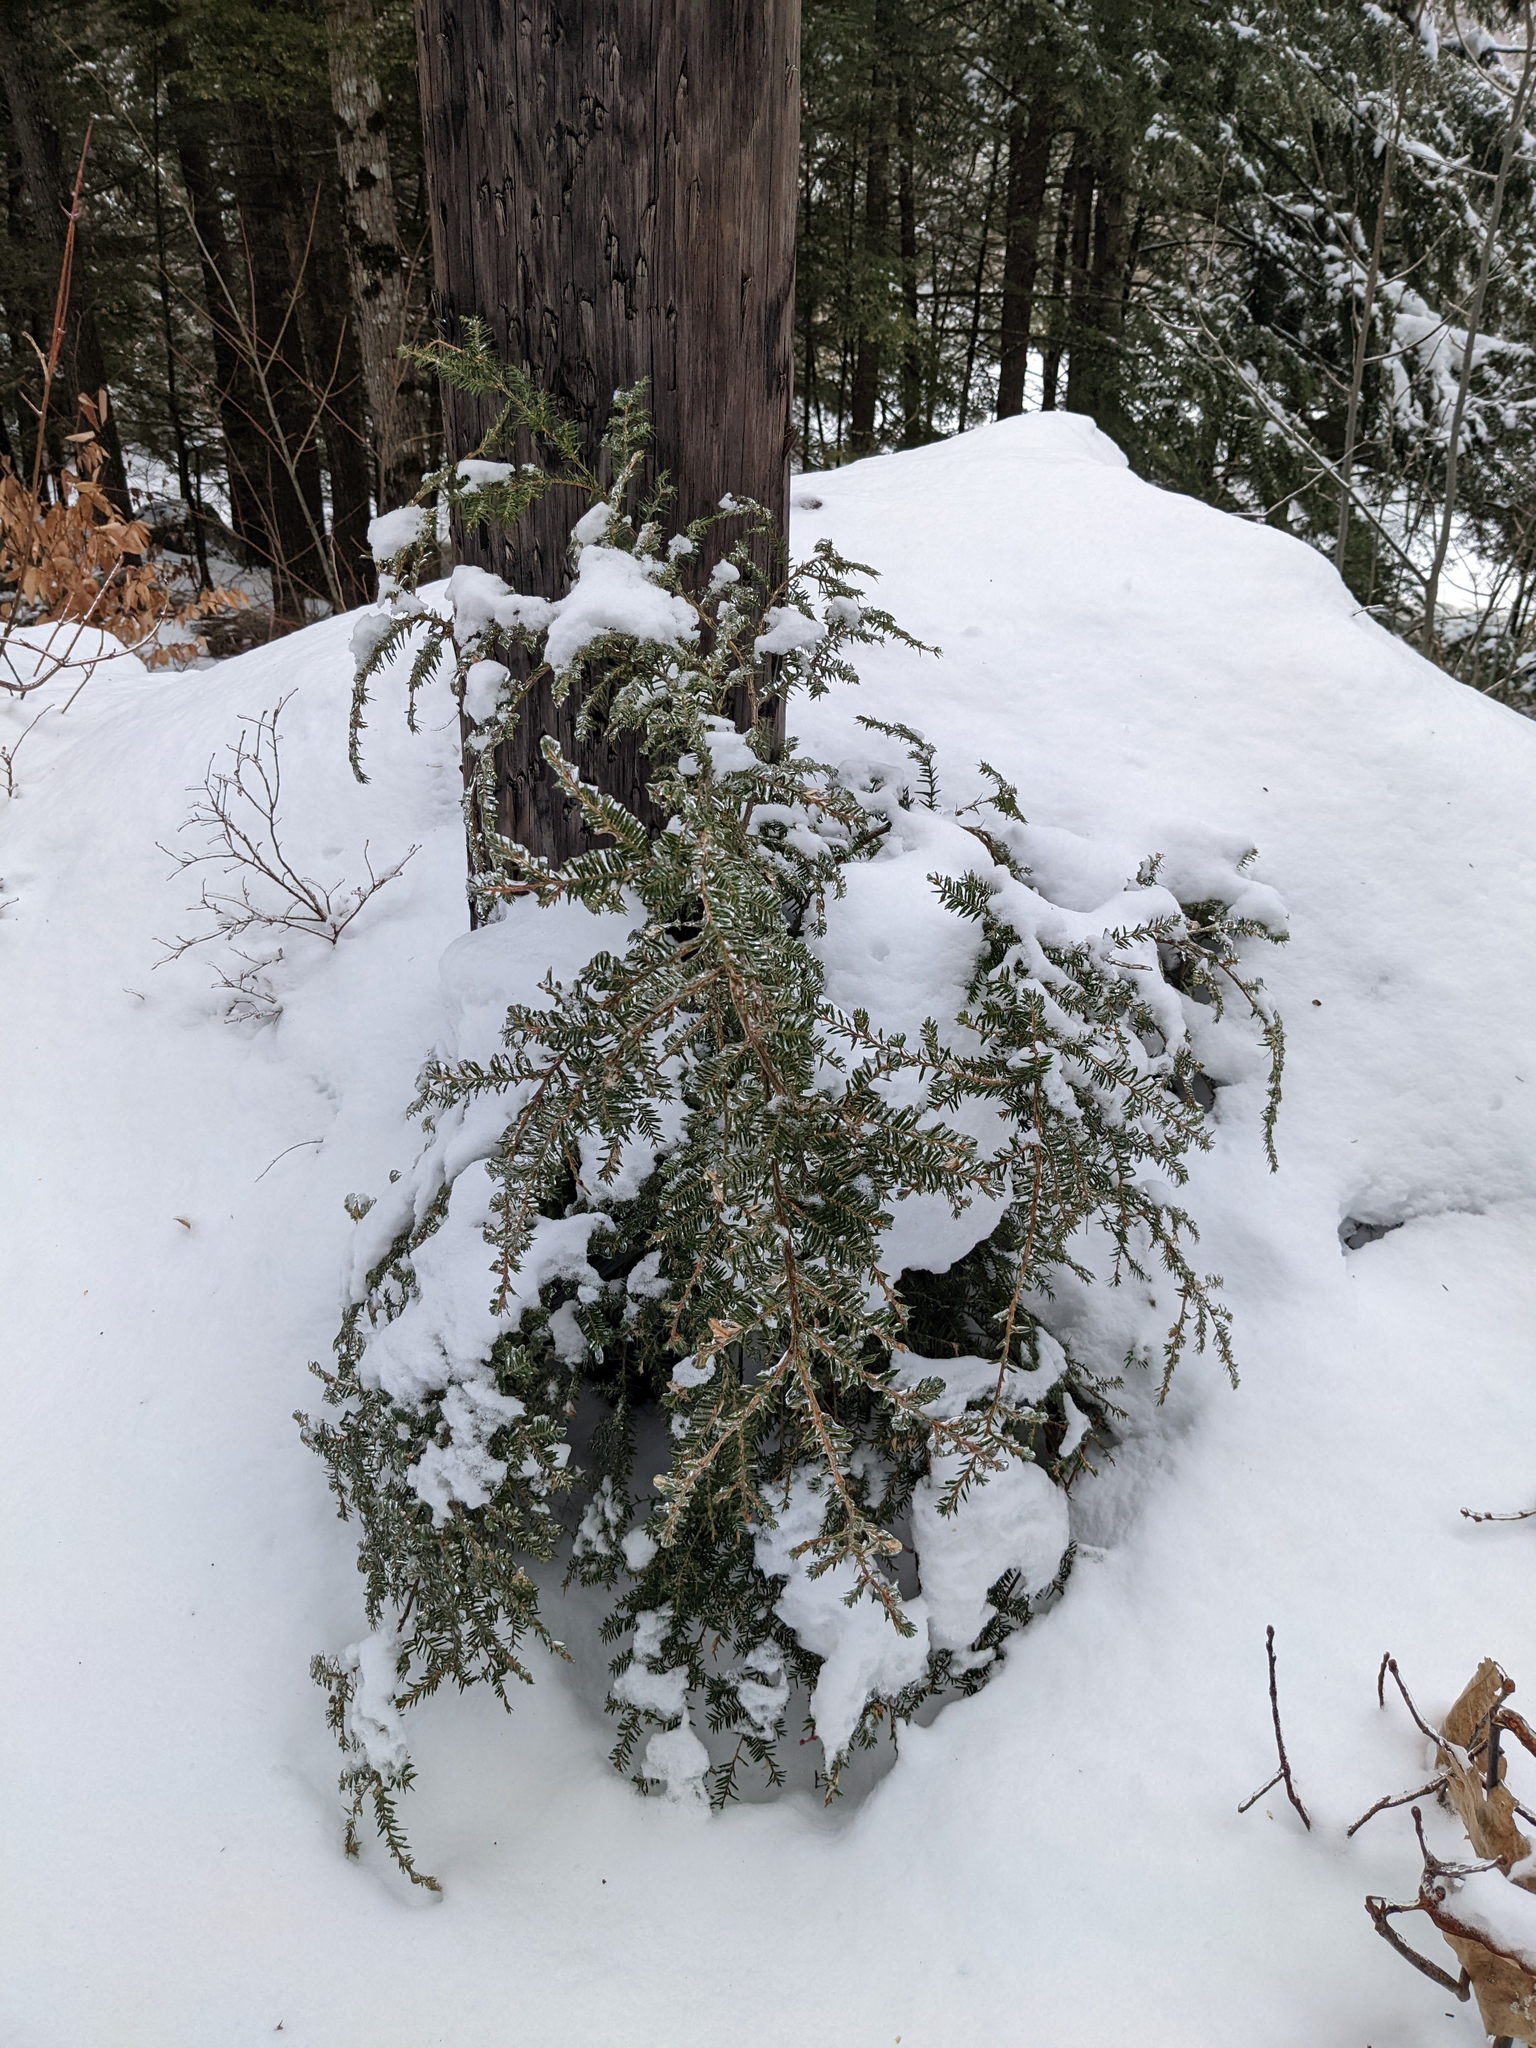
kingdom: Plantae
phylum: Tracheophyta
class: Pinopsida
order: Pinales
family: Pinaceae
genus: Tsuga
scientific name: Tsuga canadensis
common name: Eastern hemlock
